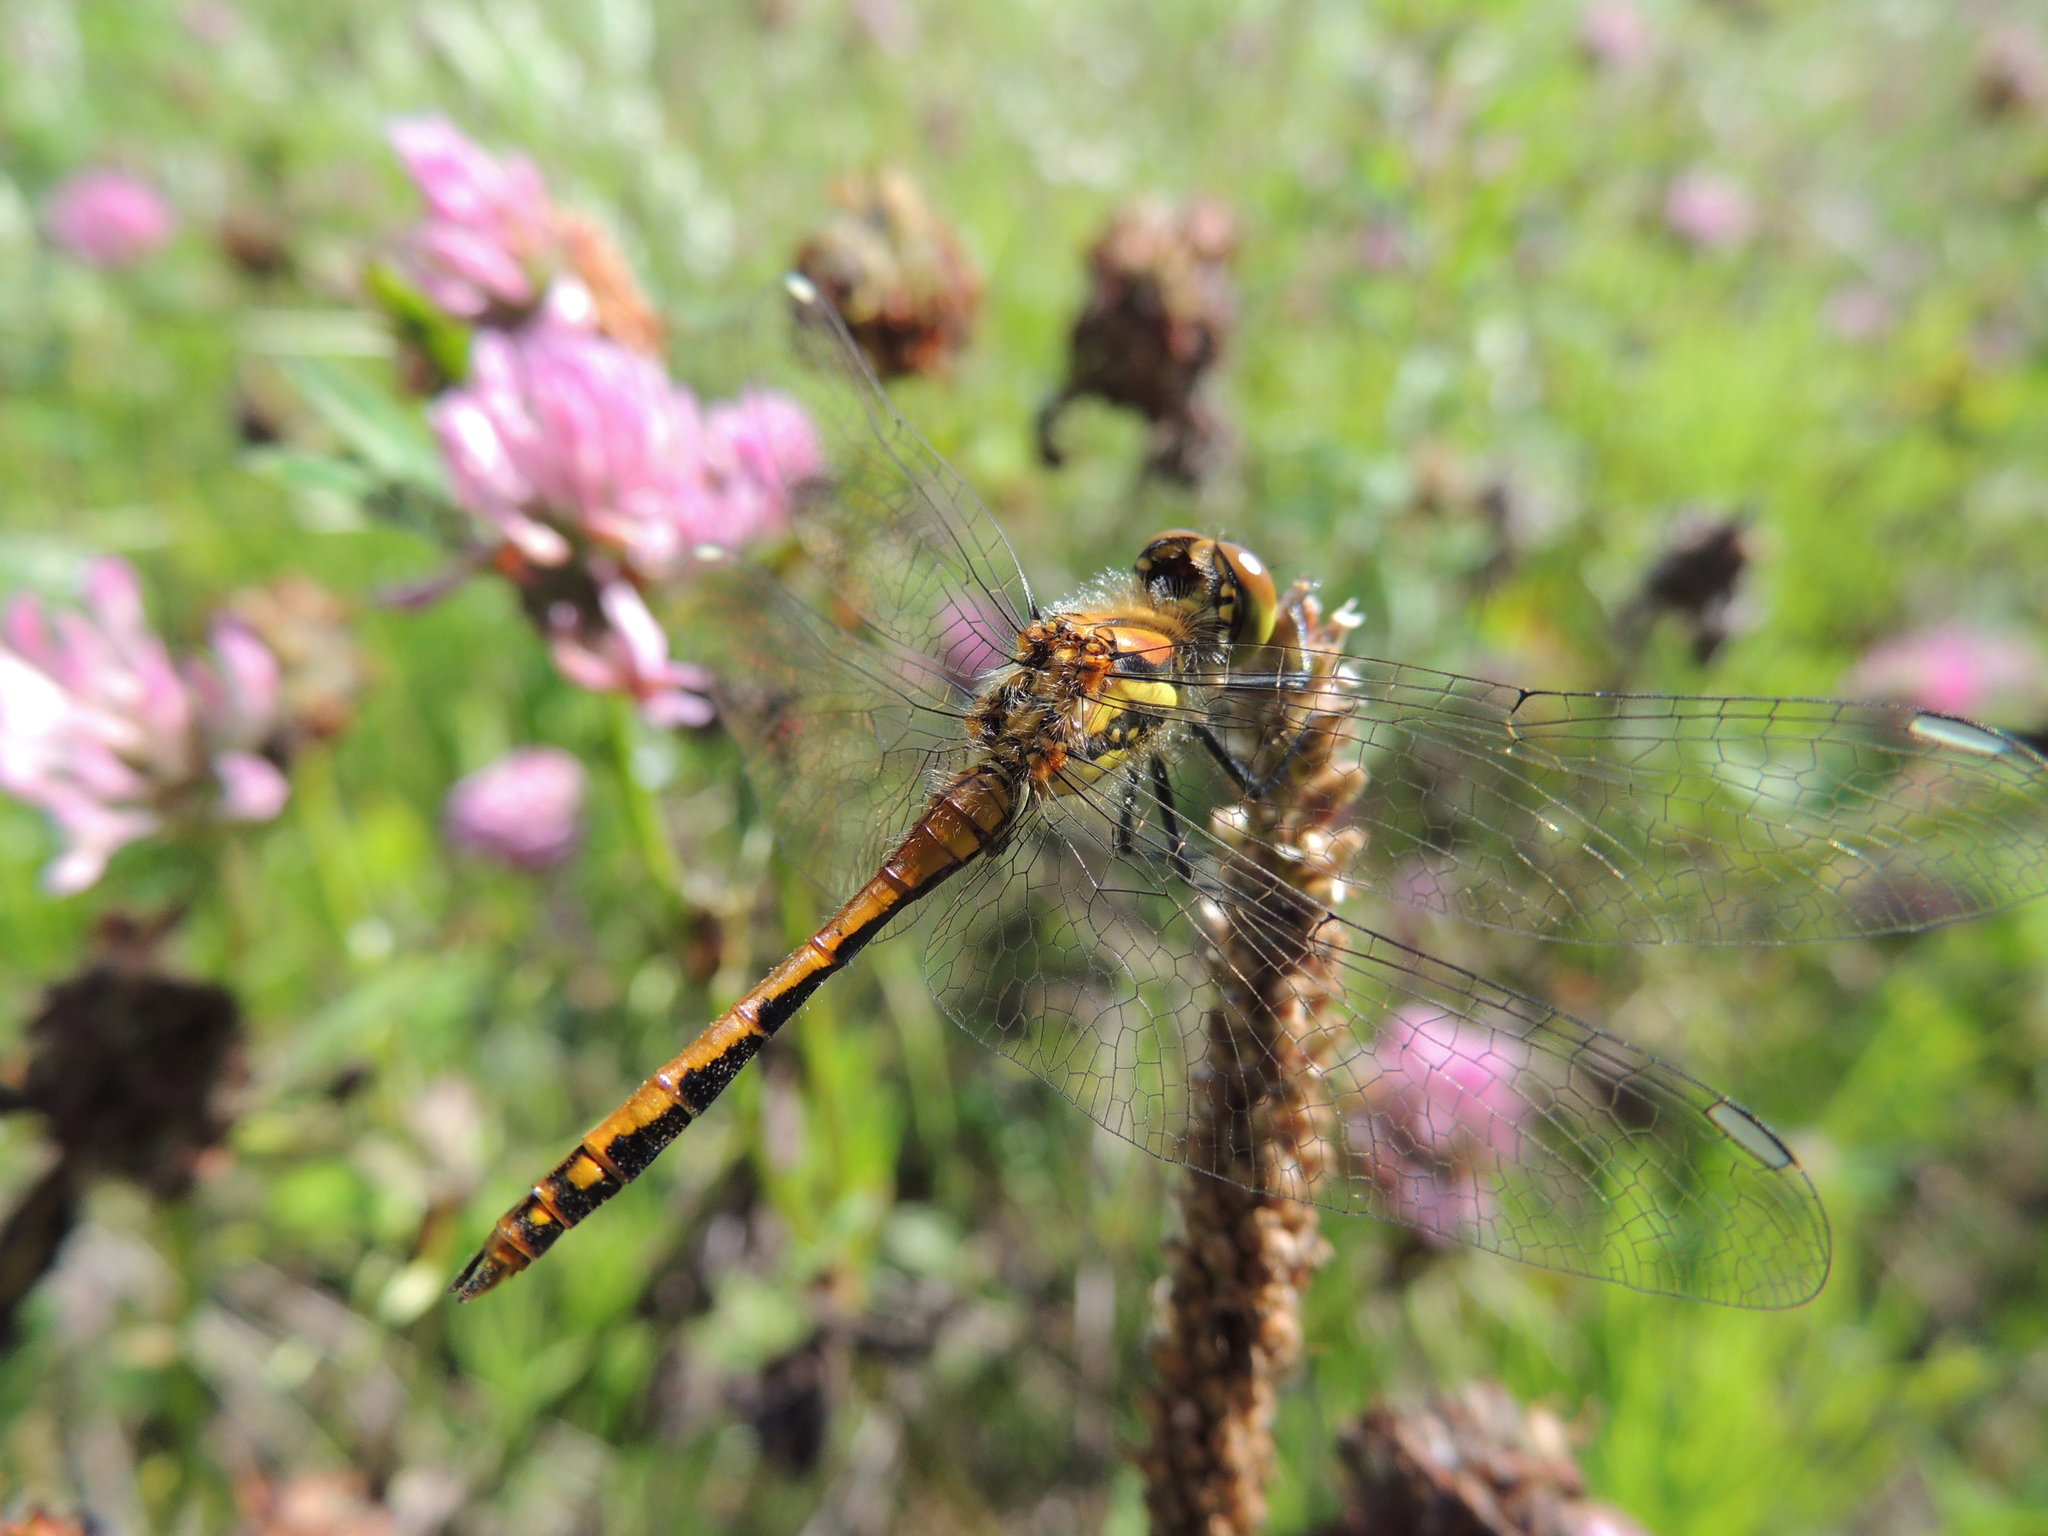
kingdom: Animalia
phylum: Arthropoda
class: Insecta
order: Odonata
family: Libellulidae
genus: Sympetrum
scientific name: Sympetrum danae
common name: Black darter
